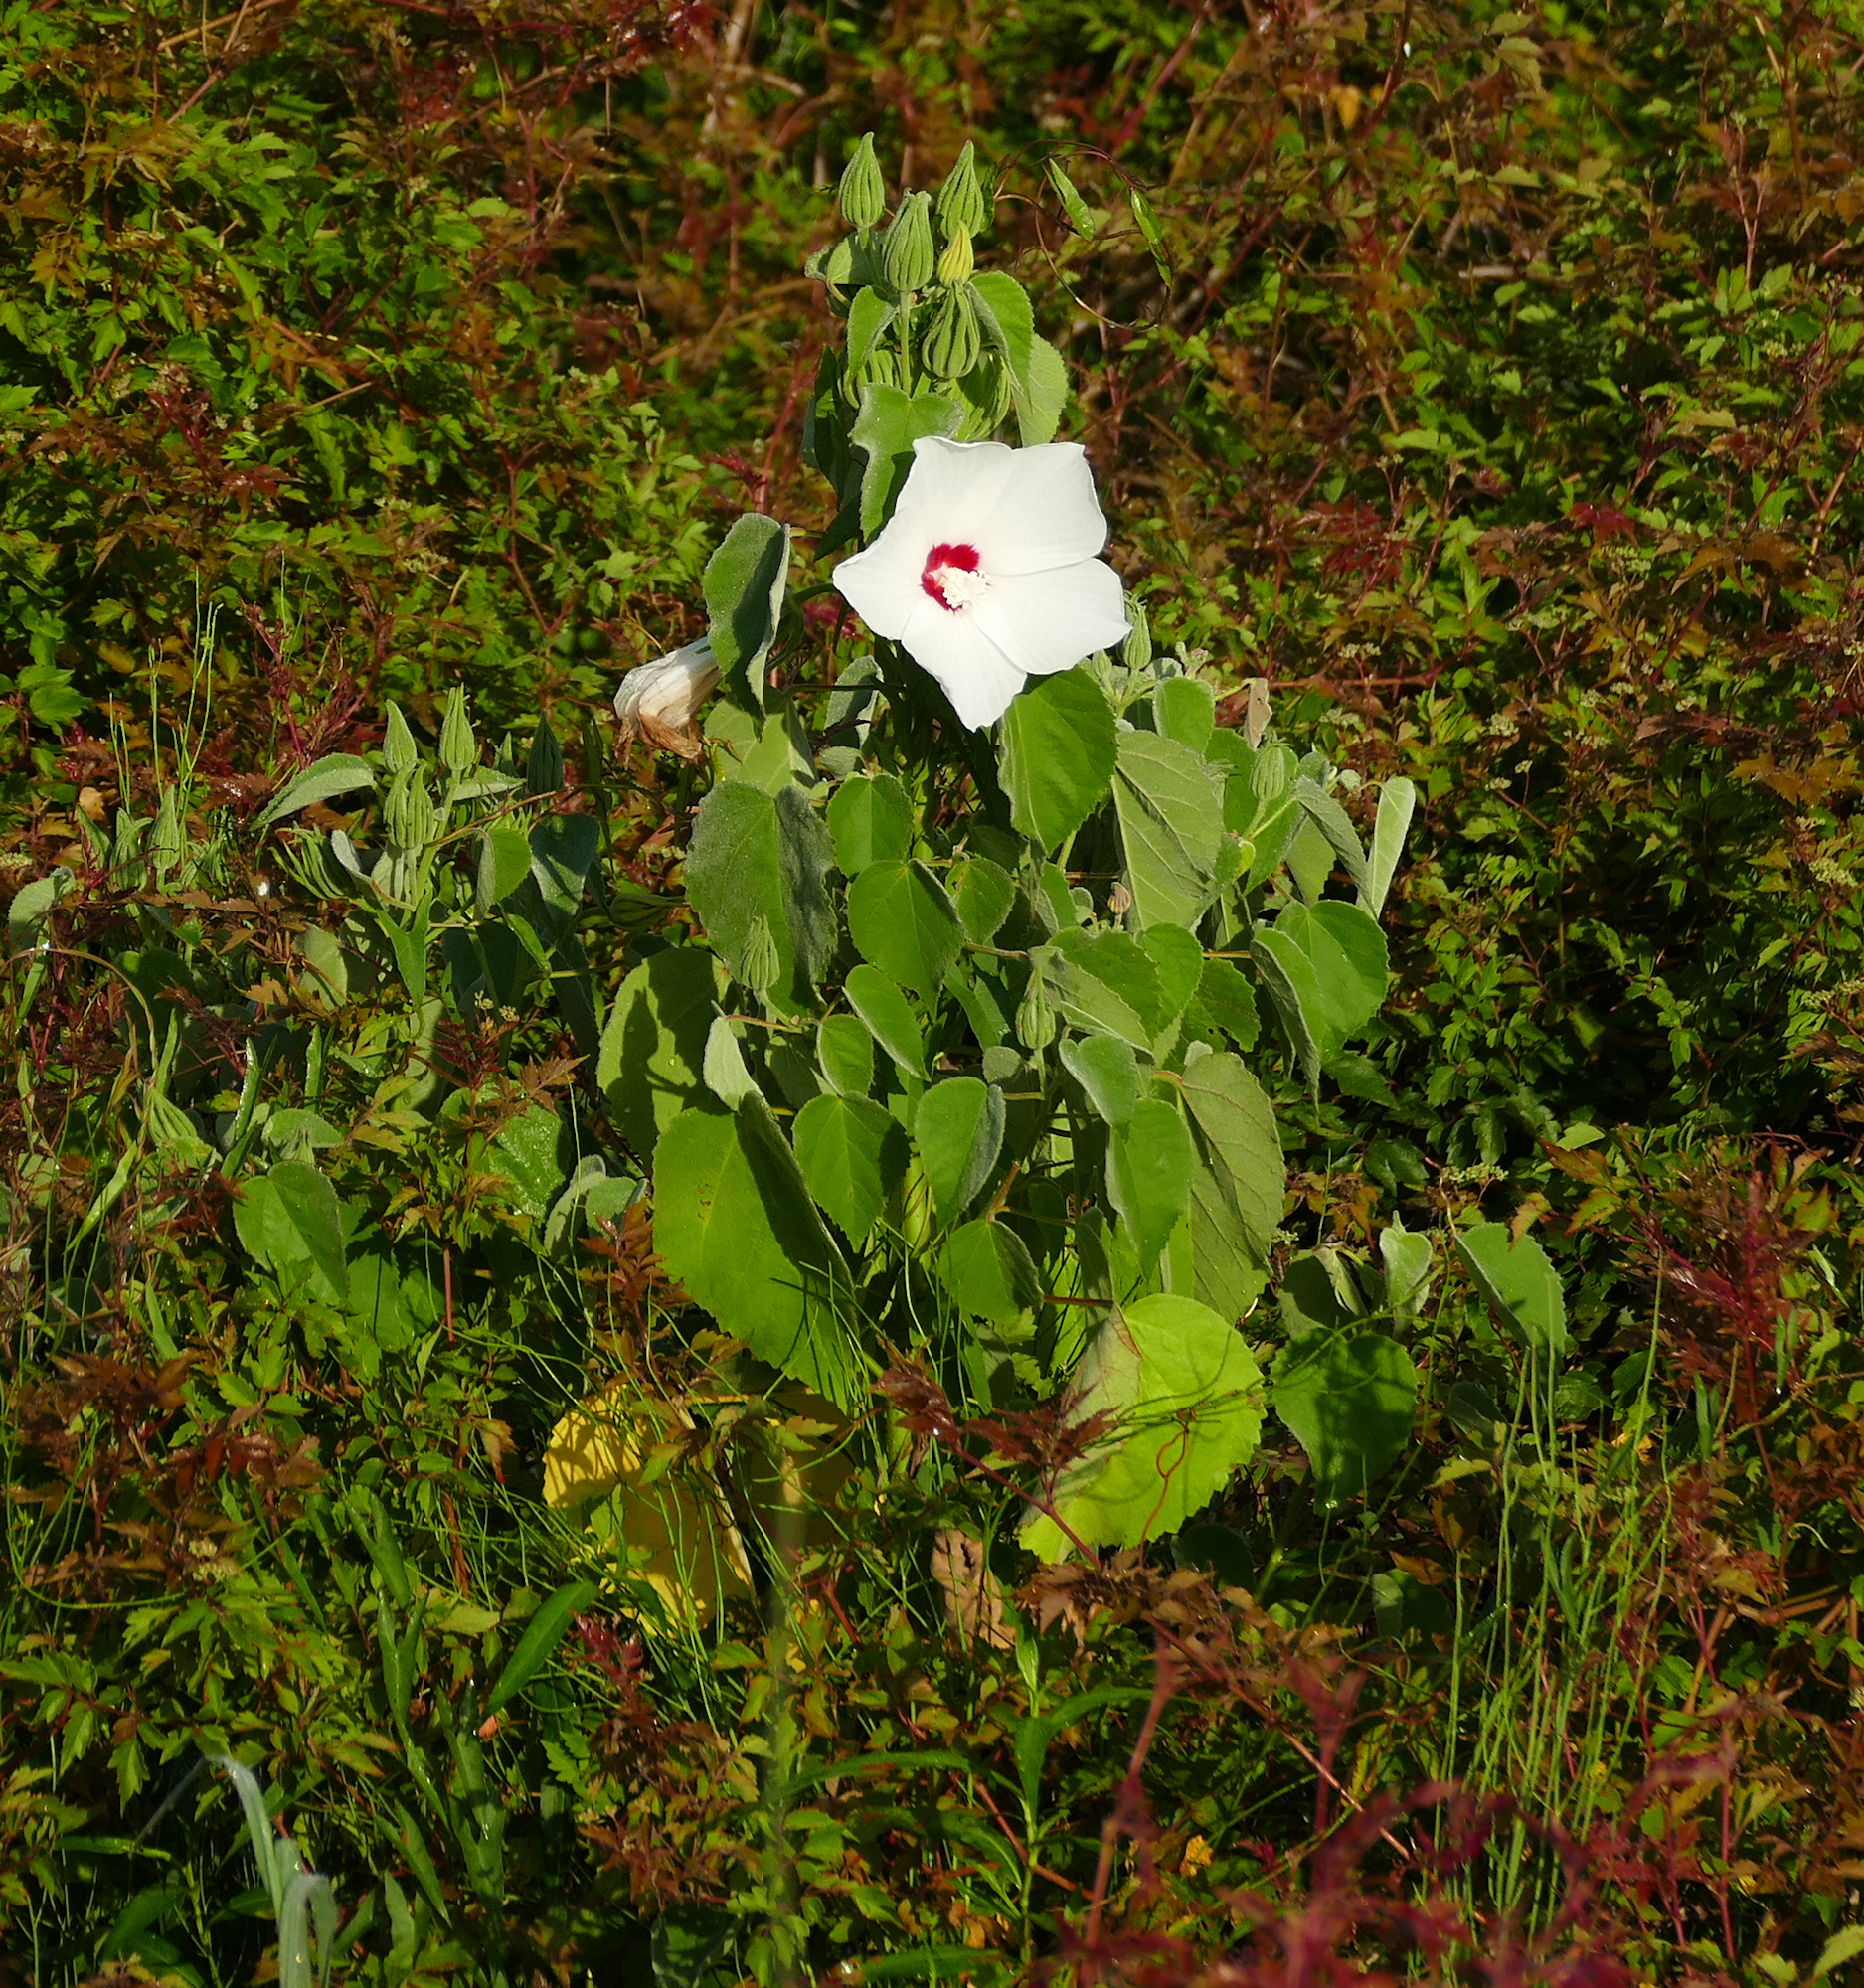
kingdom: Plantae
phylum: Tracheophyta
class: Magnoliopsida
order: Malvales
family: Malvaceae
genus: Hibiscus
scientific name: Hibiscus moscheutos
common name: Common rose-mallow
